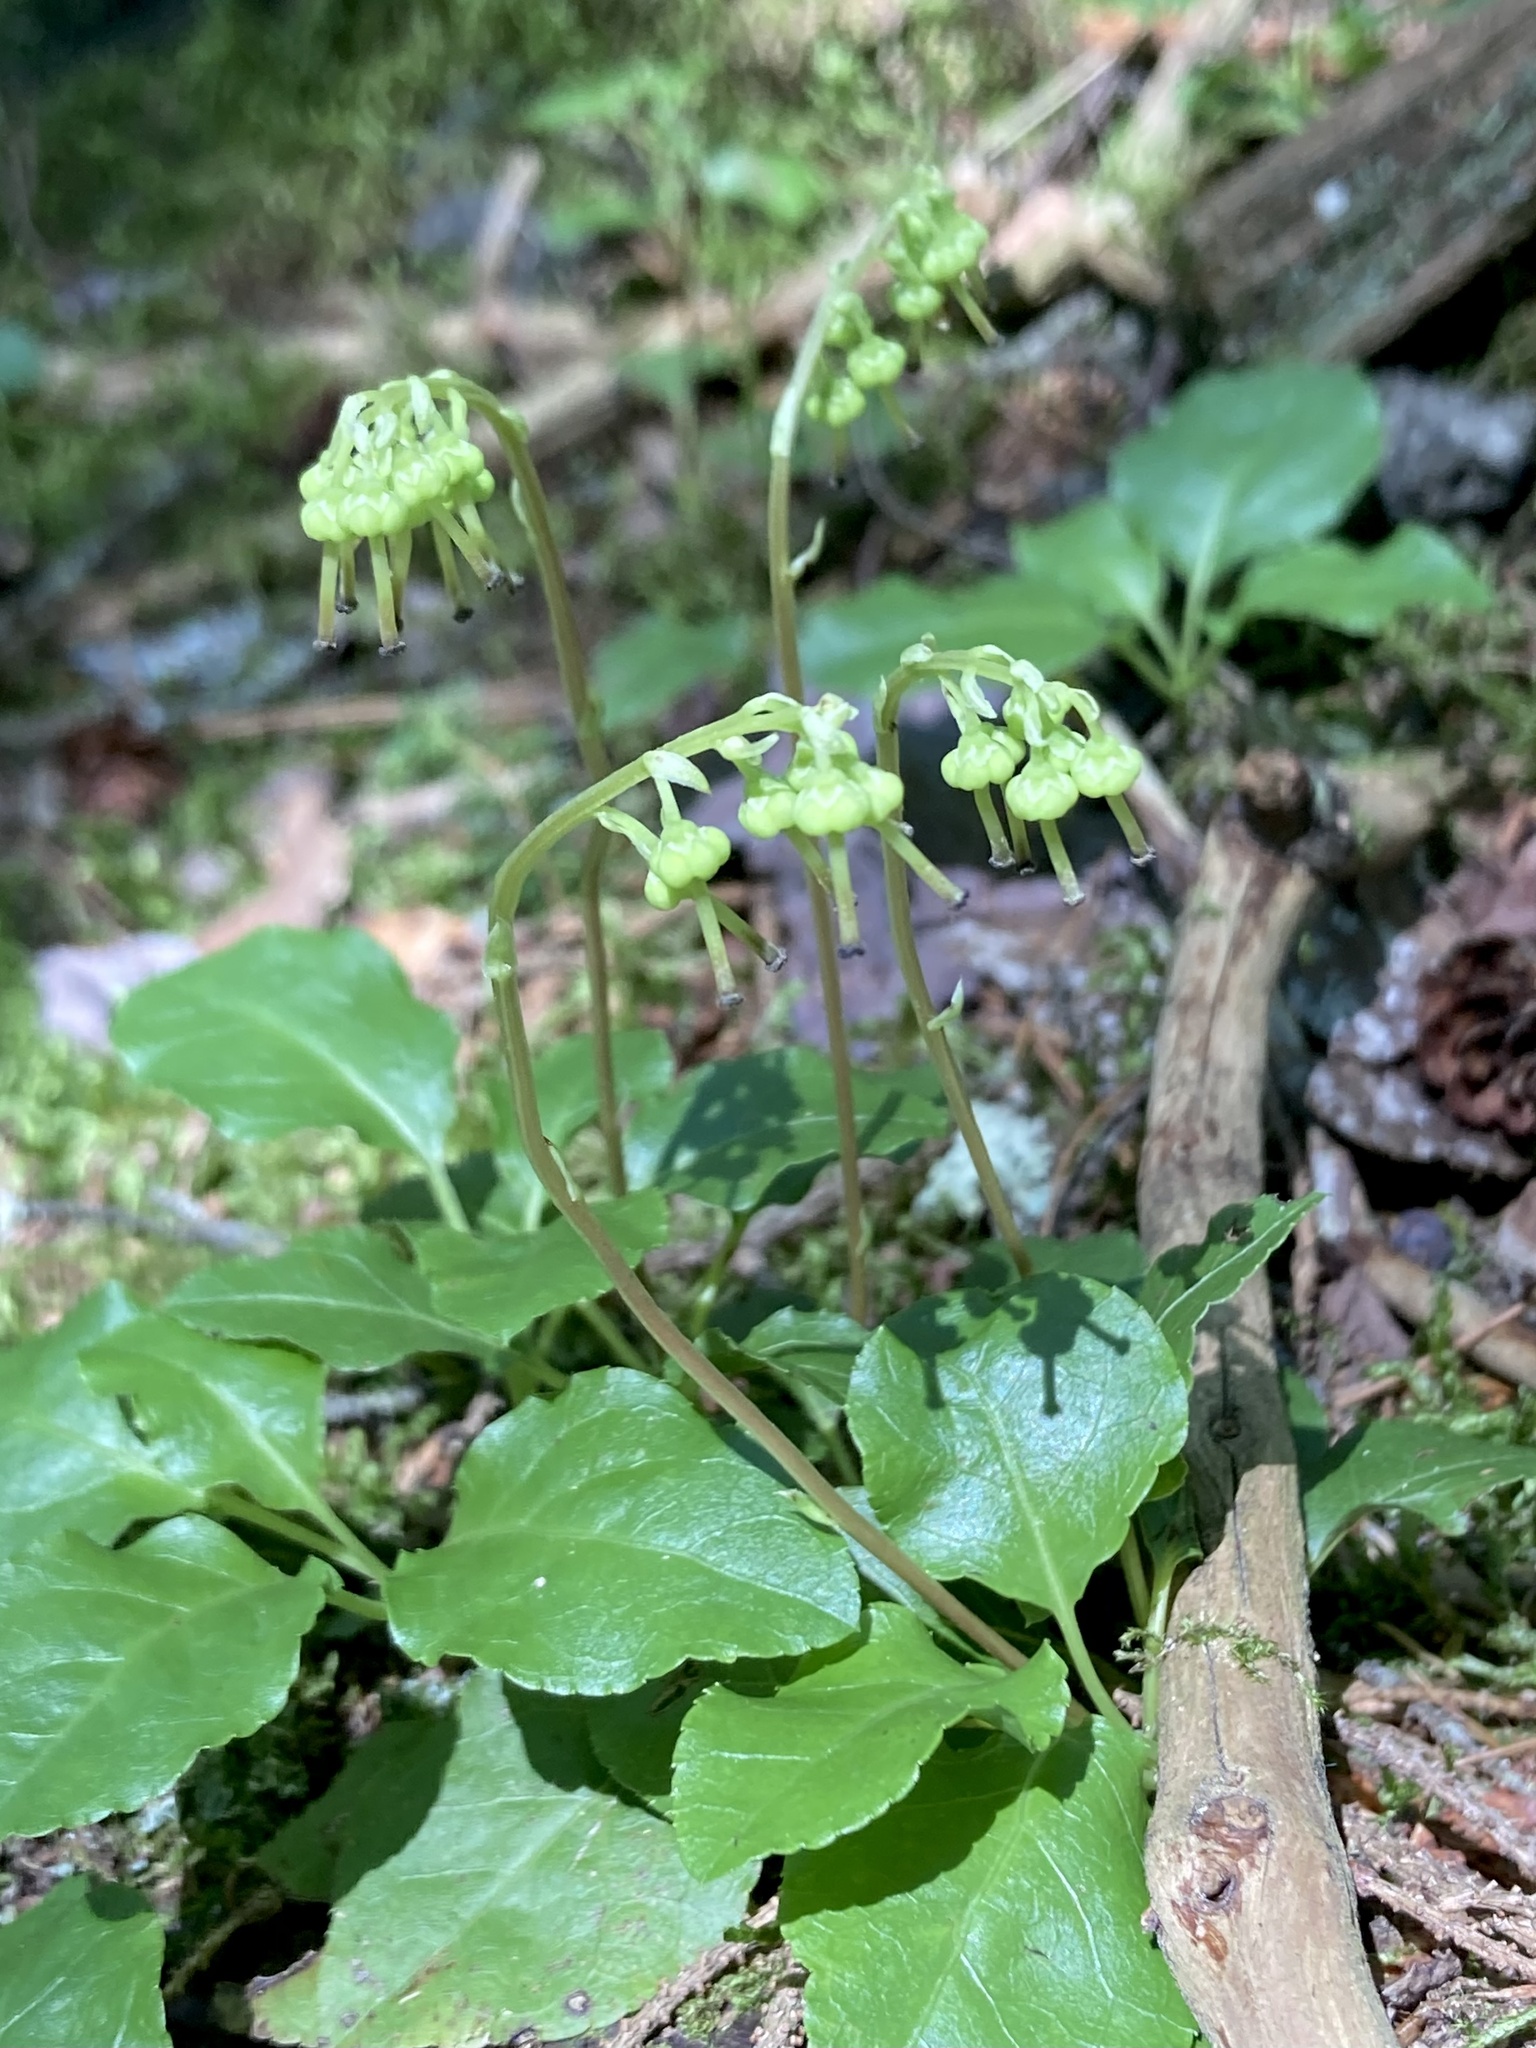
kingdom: Plantae
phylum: Tracheophyta
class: Magnoliopsida
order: Ericales
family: Ericaceae
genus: Orthilia
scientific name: Orthilia secunda
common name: One-sided orthilia
